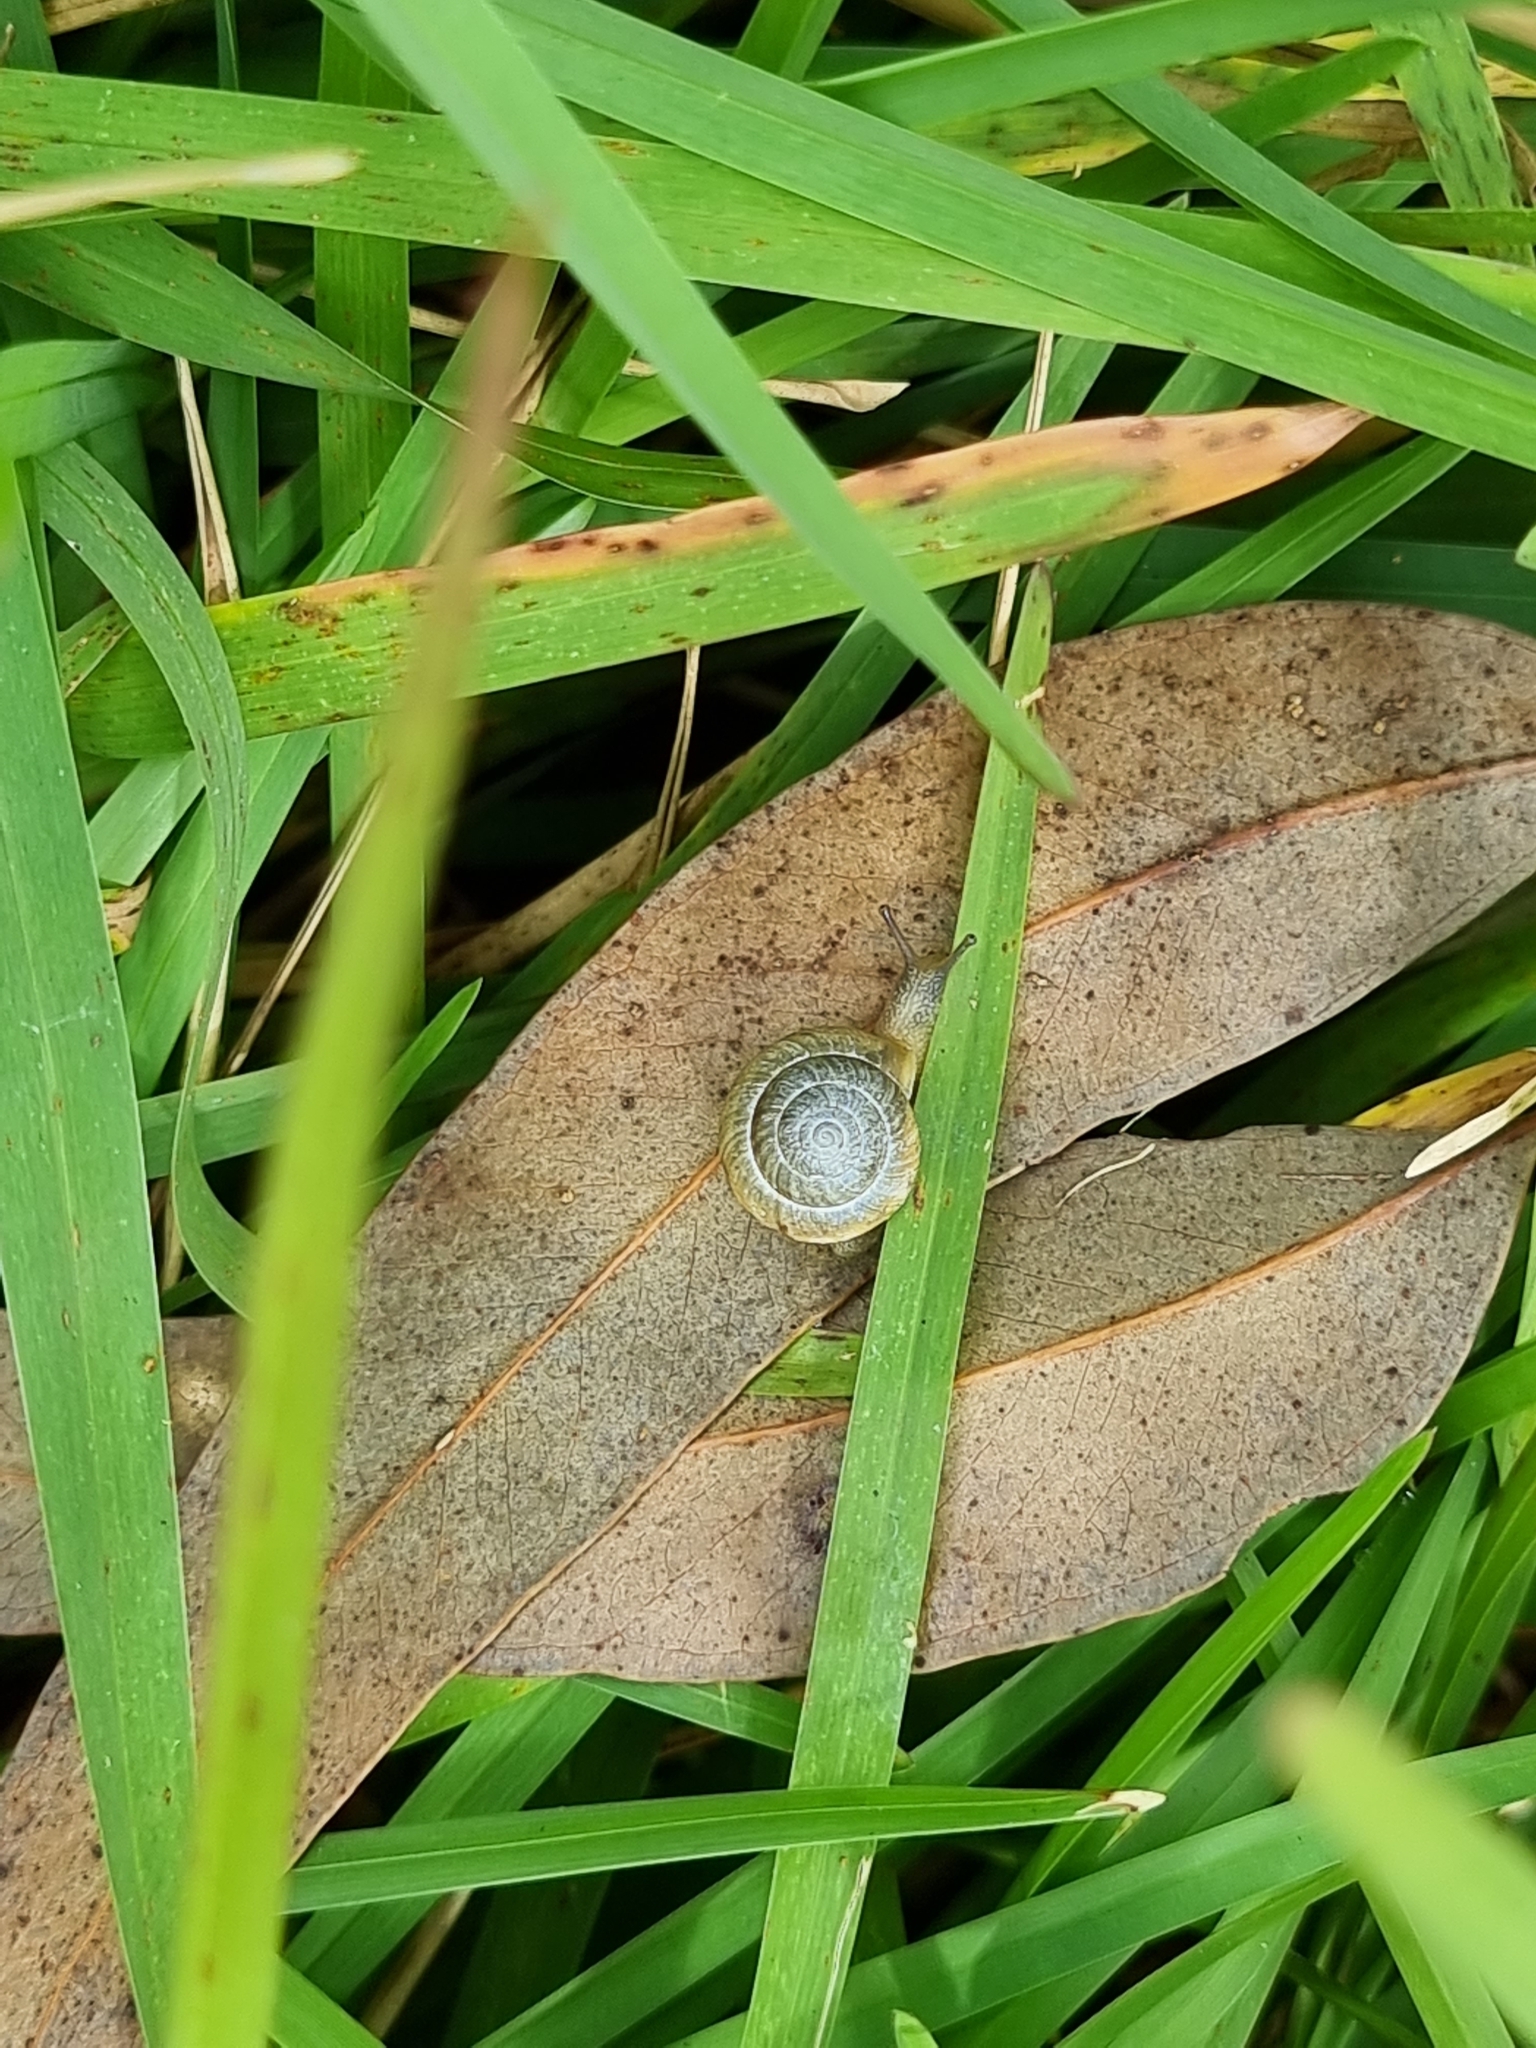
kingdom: Animalia
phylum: Mollusca
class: Gastropoda
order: Stylommatophora
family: Camaenidae
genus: Bradybaena
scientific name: Bradybaena similaris
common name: Asian trampsnail
